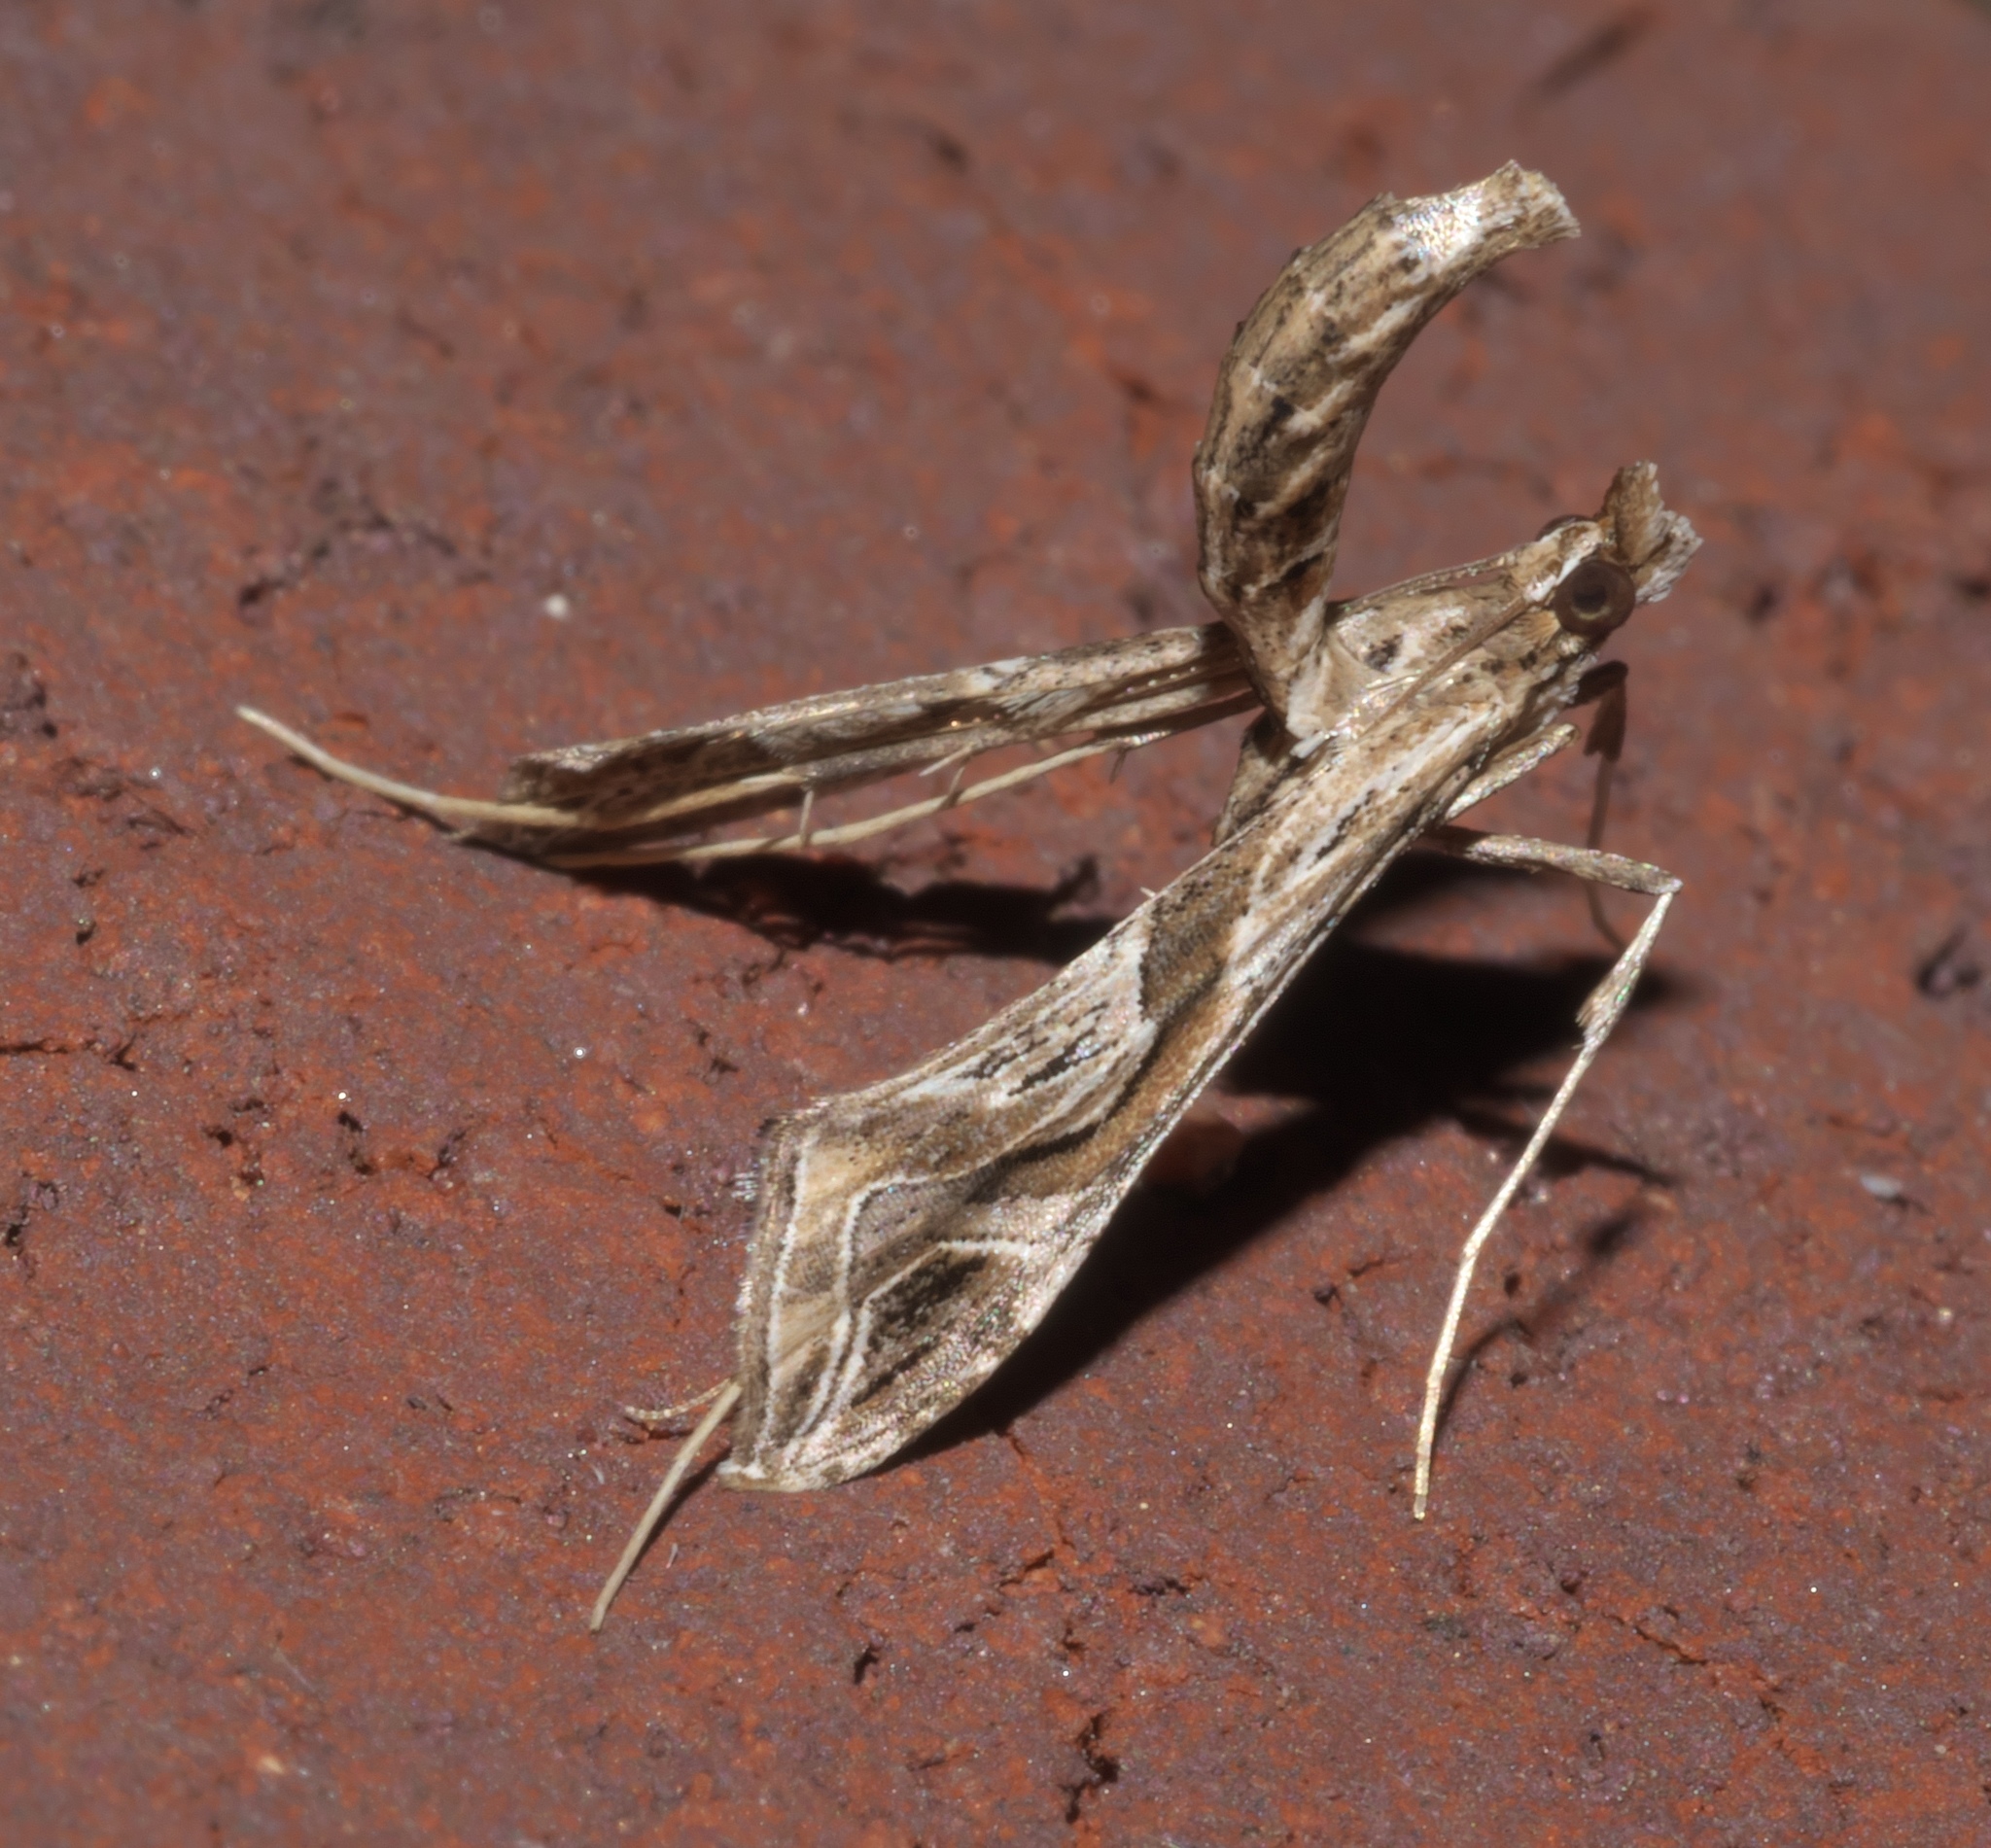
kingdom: Animalia
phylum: Arthropoda
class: Insecta
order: Lepidoptera
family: Crambidae
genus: Lineodes
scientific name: Lineodes integra
